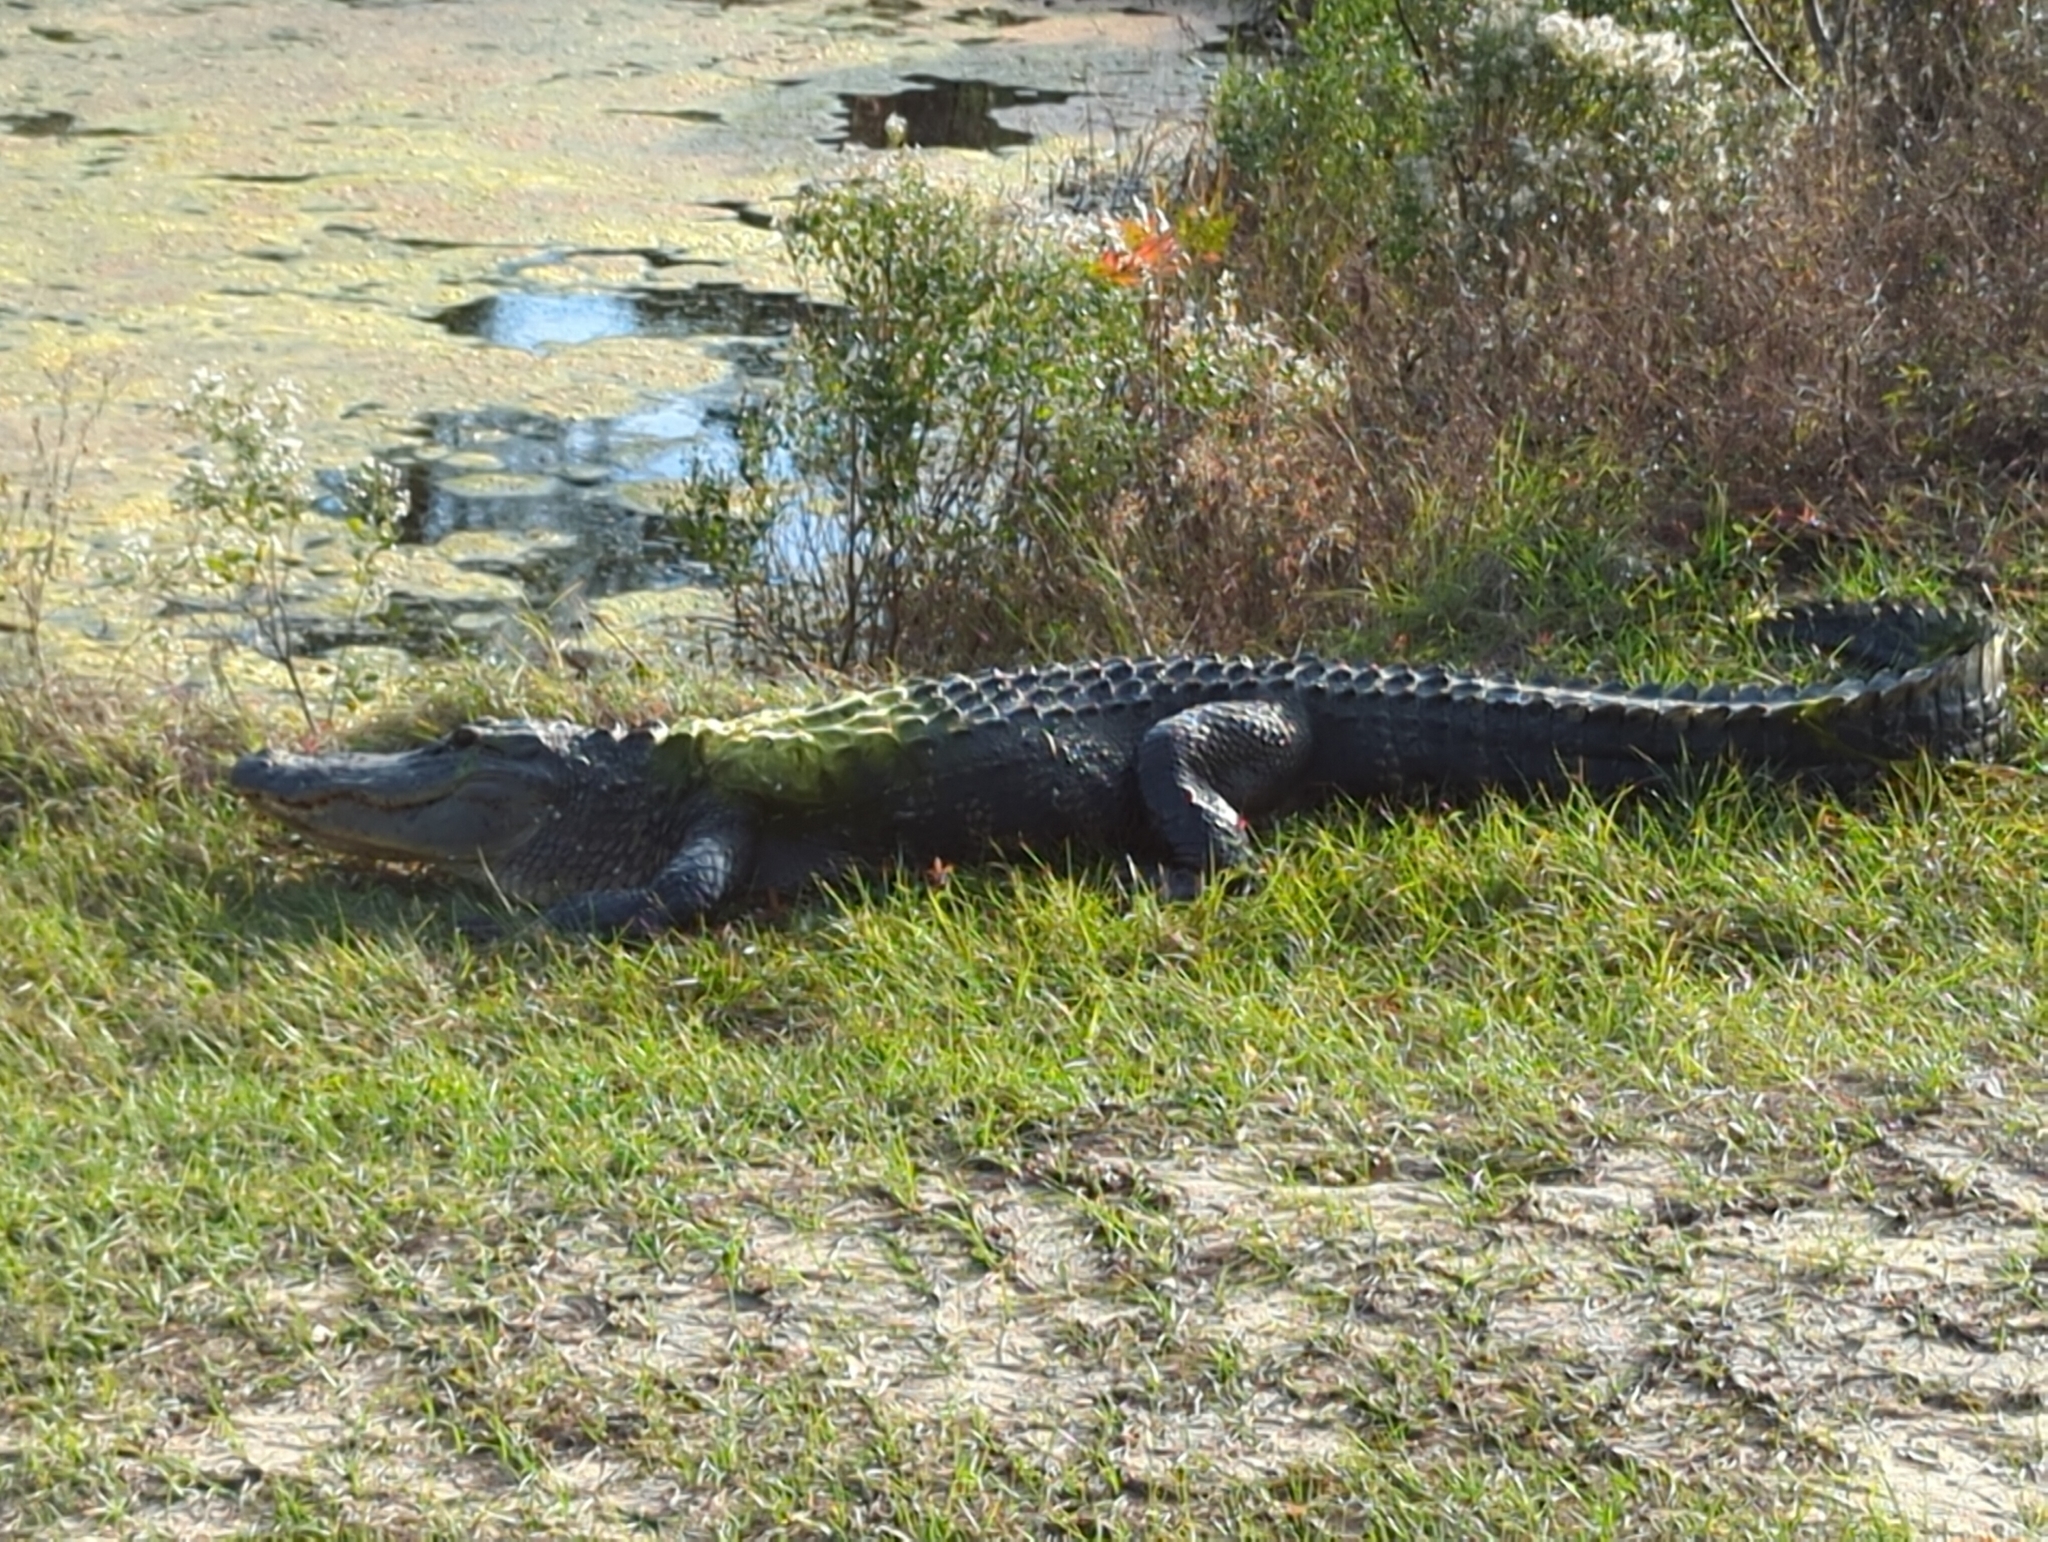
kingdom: Animalia
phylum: Chordata
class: Crocodylia
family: Alligatoridae
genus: Alligator
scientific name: Alligator mississippiensis
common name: American alligator
